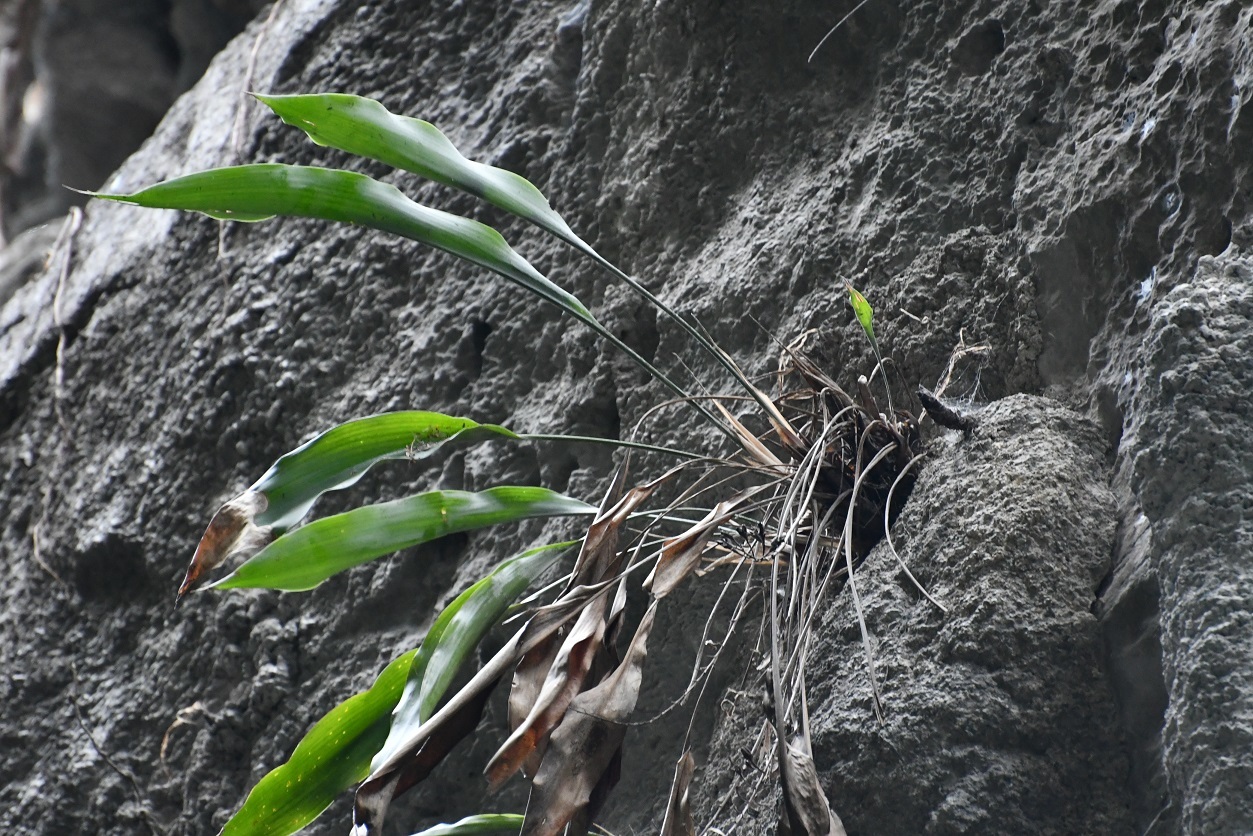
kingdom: Plantae
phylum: Tracheophyta
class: Liliopsida
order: Poales
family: Bromeliaceae
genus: Pitcairnia
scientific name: Pitcairnia chiapensis
